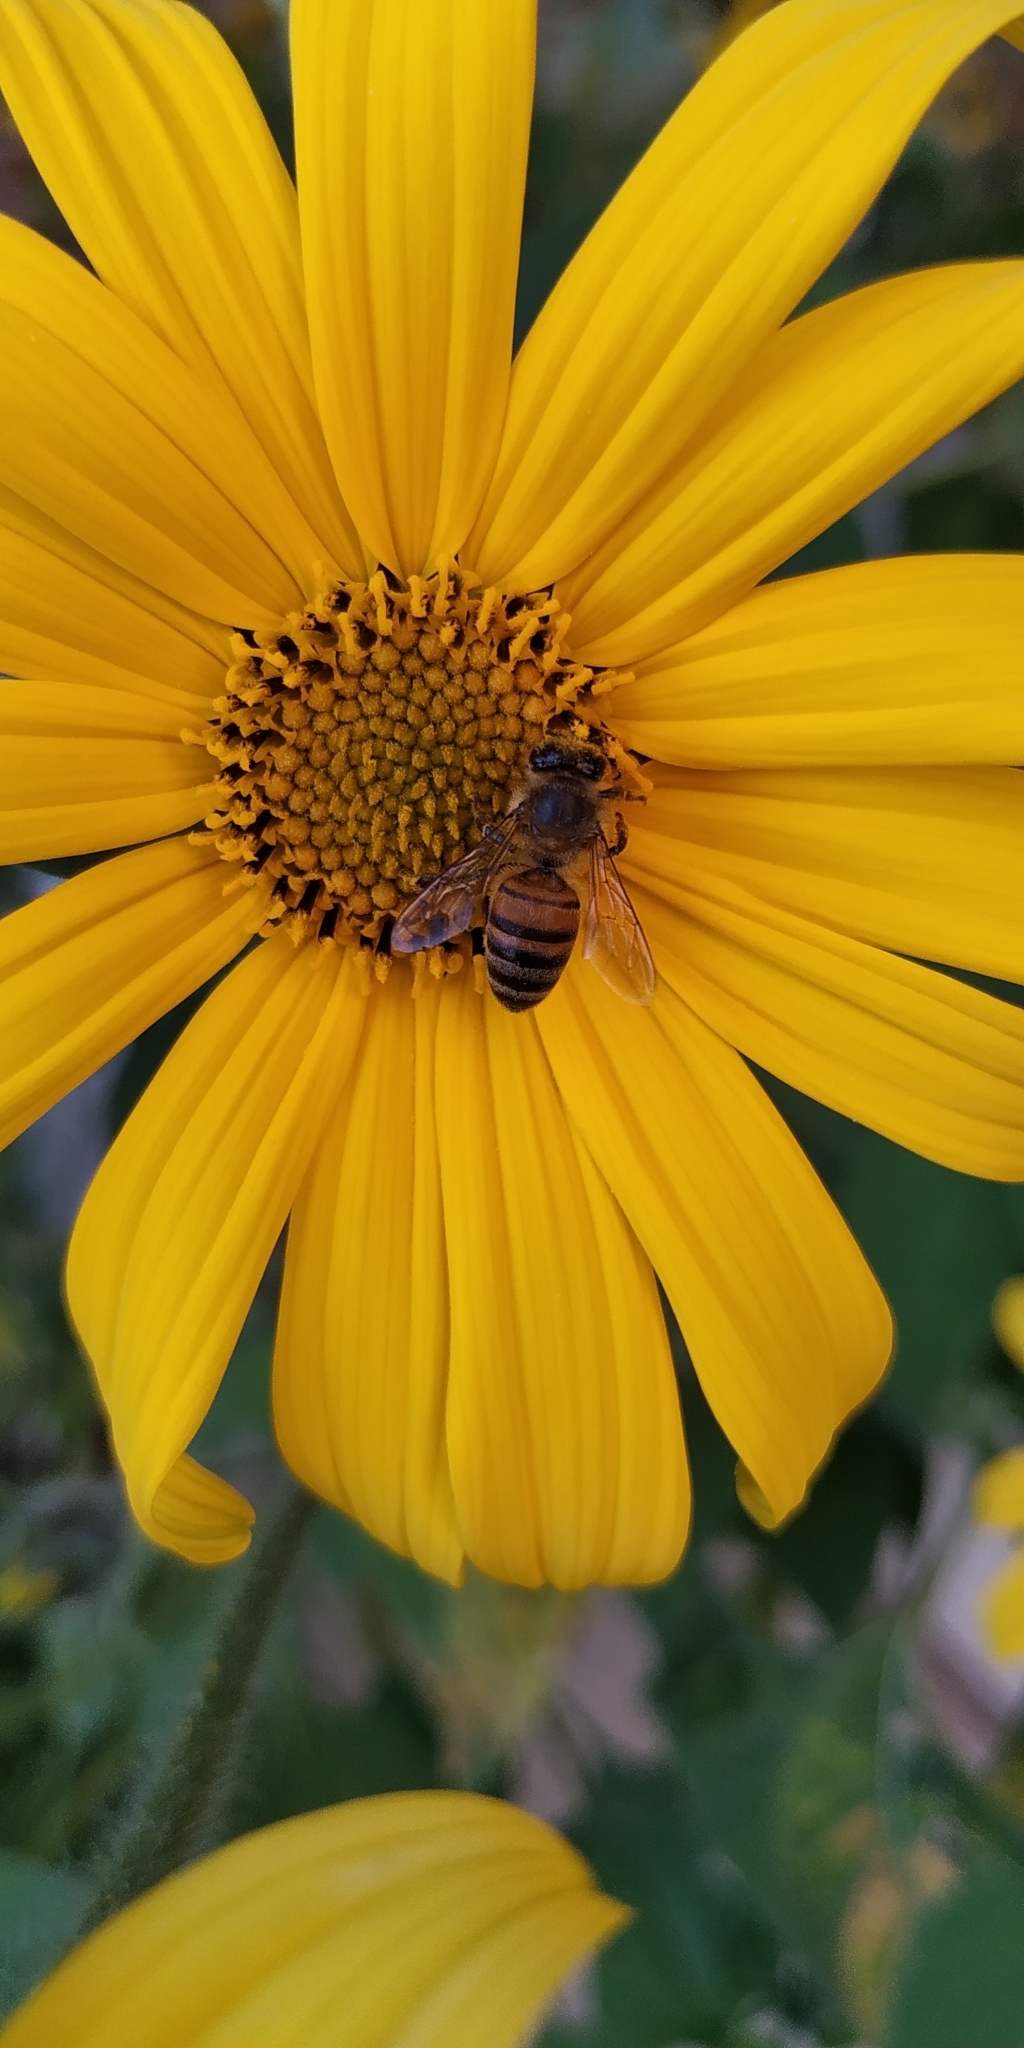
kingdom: Animalia
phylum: Arthropoda
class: Insecta
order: Hymenoptera
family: Apidae
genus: Apis
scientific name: Apis mellifera
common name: Honey bee
